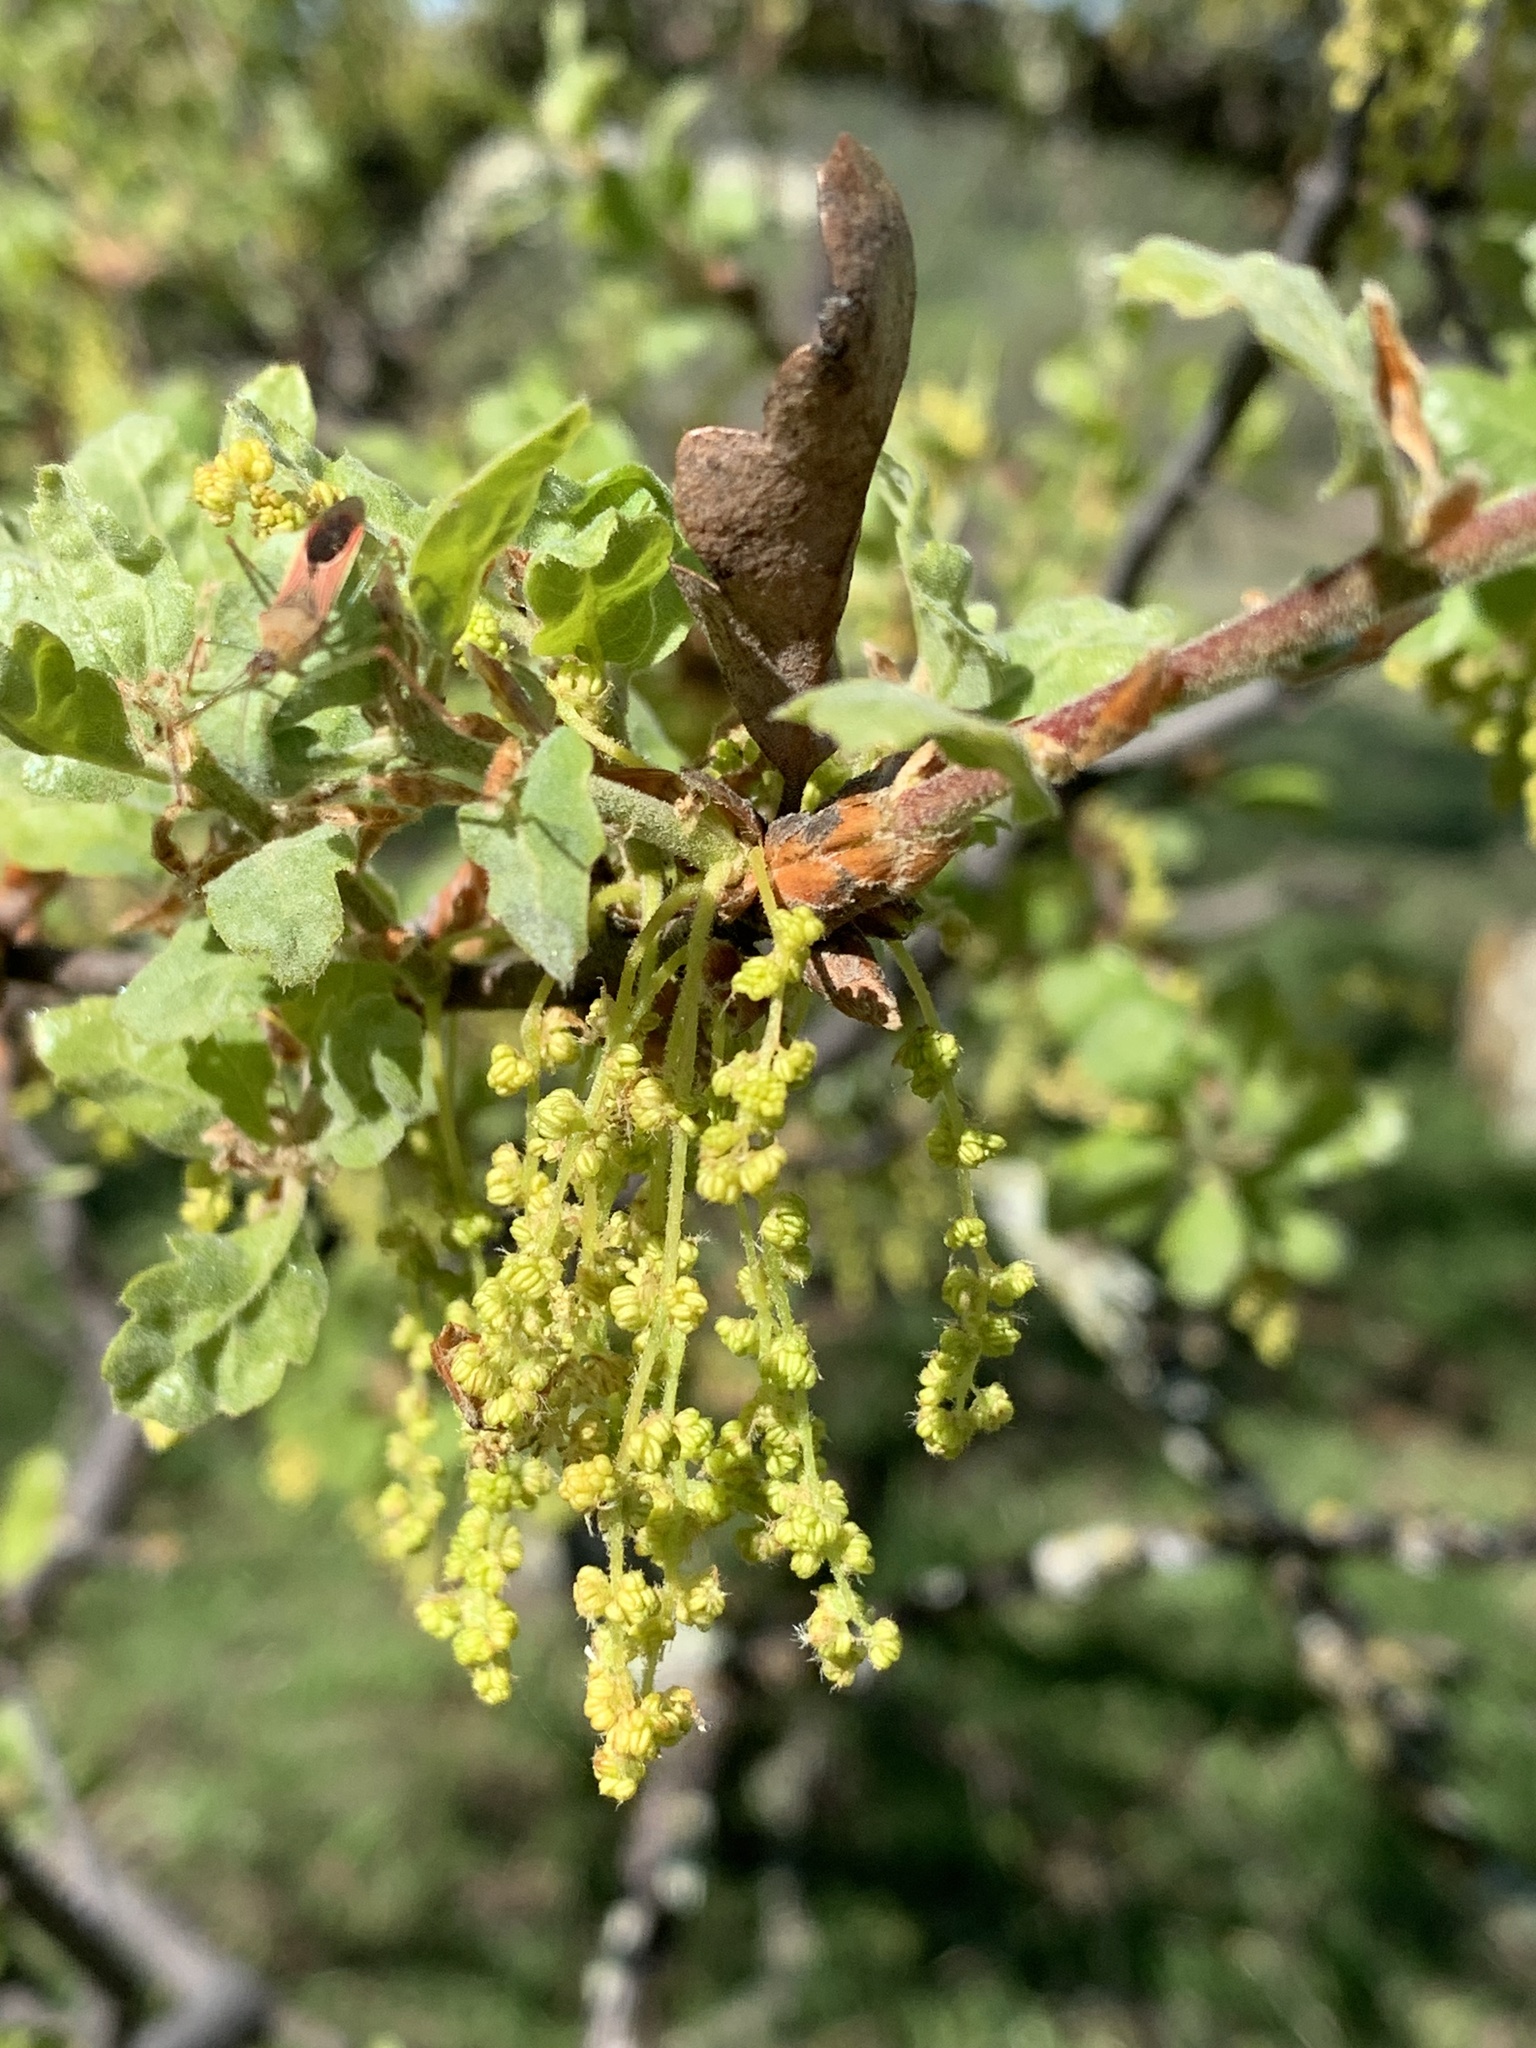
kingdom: Plantae
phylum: Tracheophyta
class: Magnoliopsida
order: Fagales
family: Fagaceae
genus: Quercus
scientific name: Quercus douglasii
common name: Blue oak
